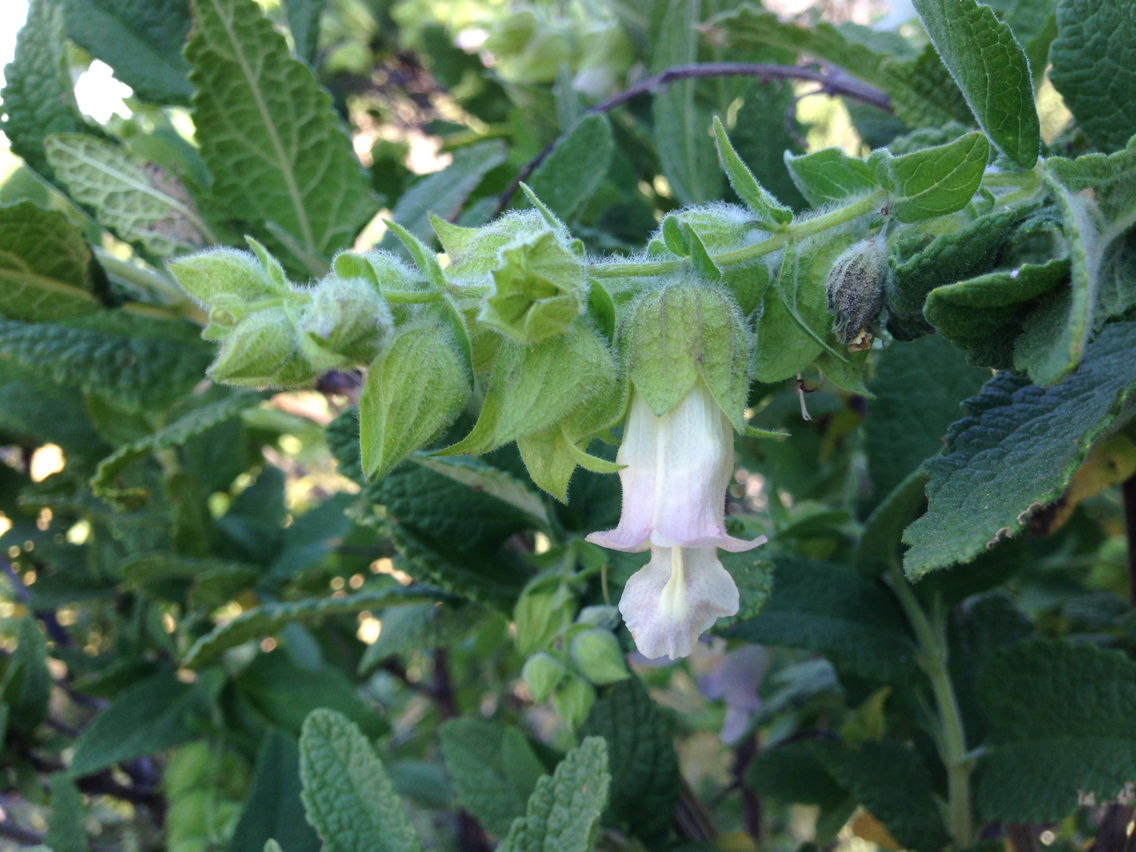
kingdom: Plantae
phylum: Tracheophyta
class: Magnoliopsida
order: Lamiales
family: Lamiaceae
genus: Lepechinia
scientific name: Lepechinia calycina
